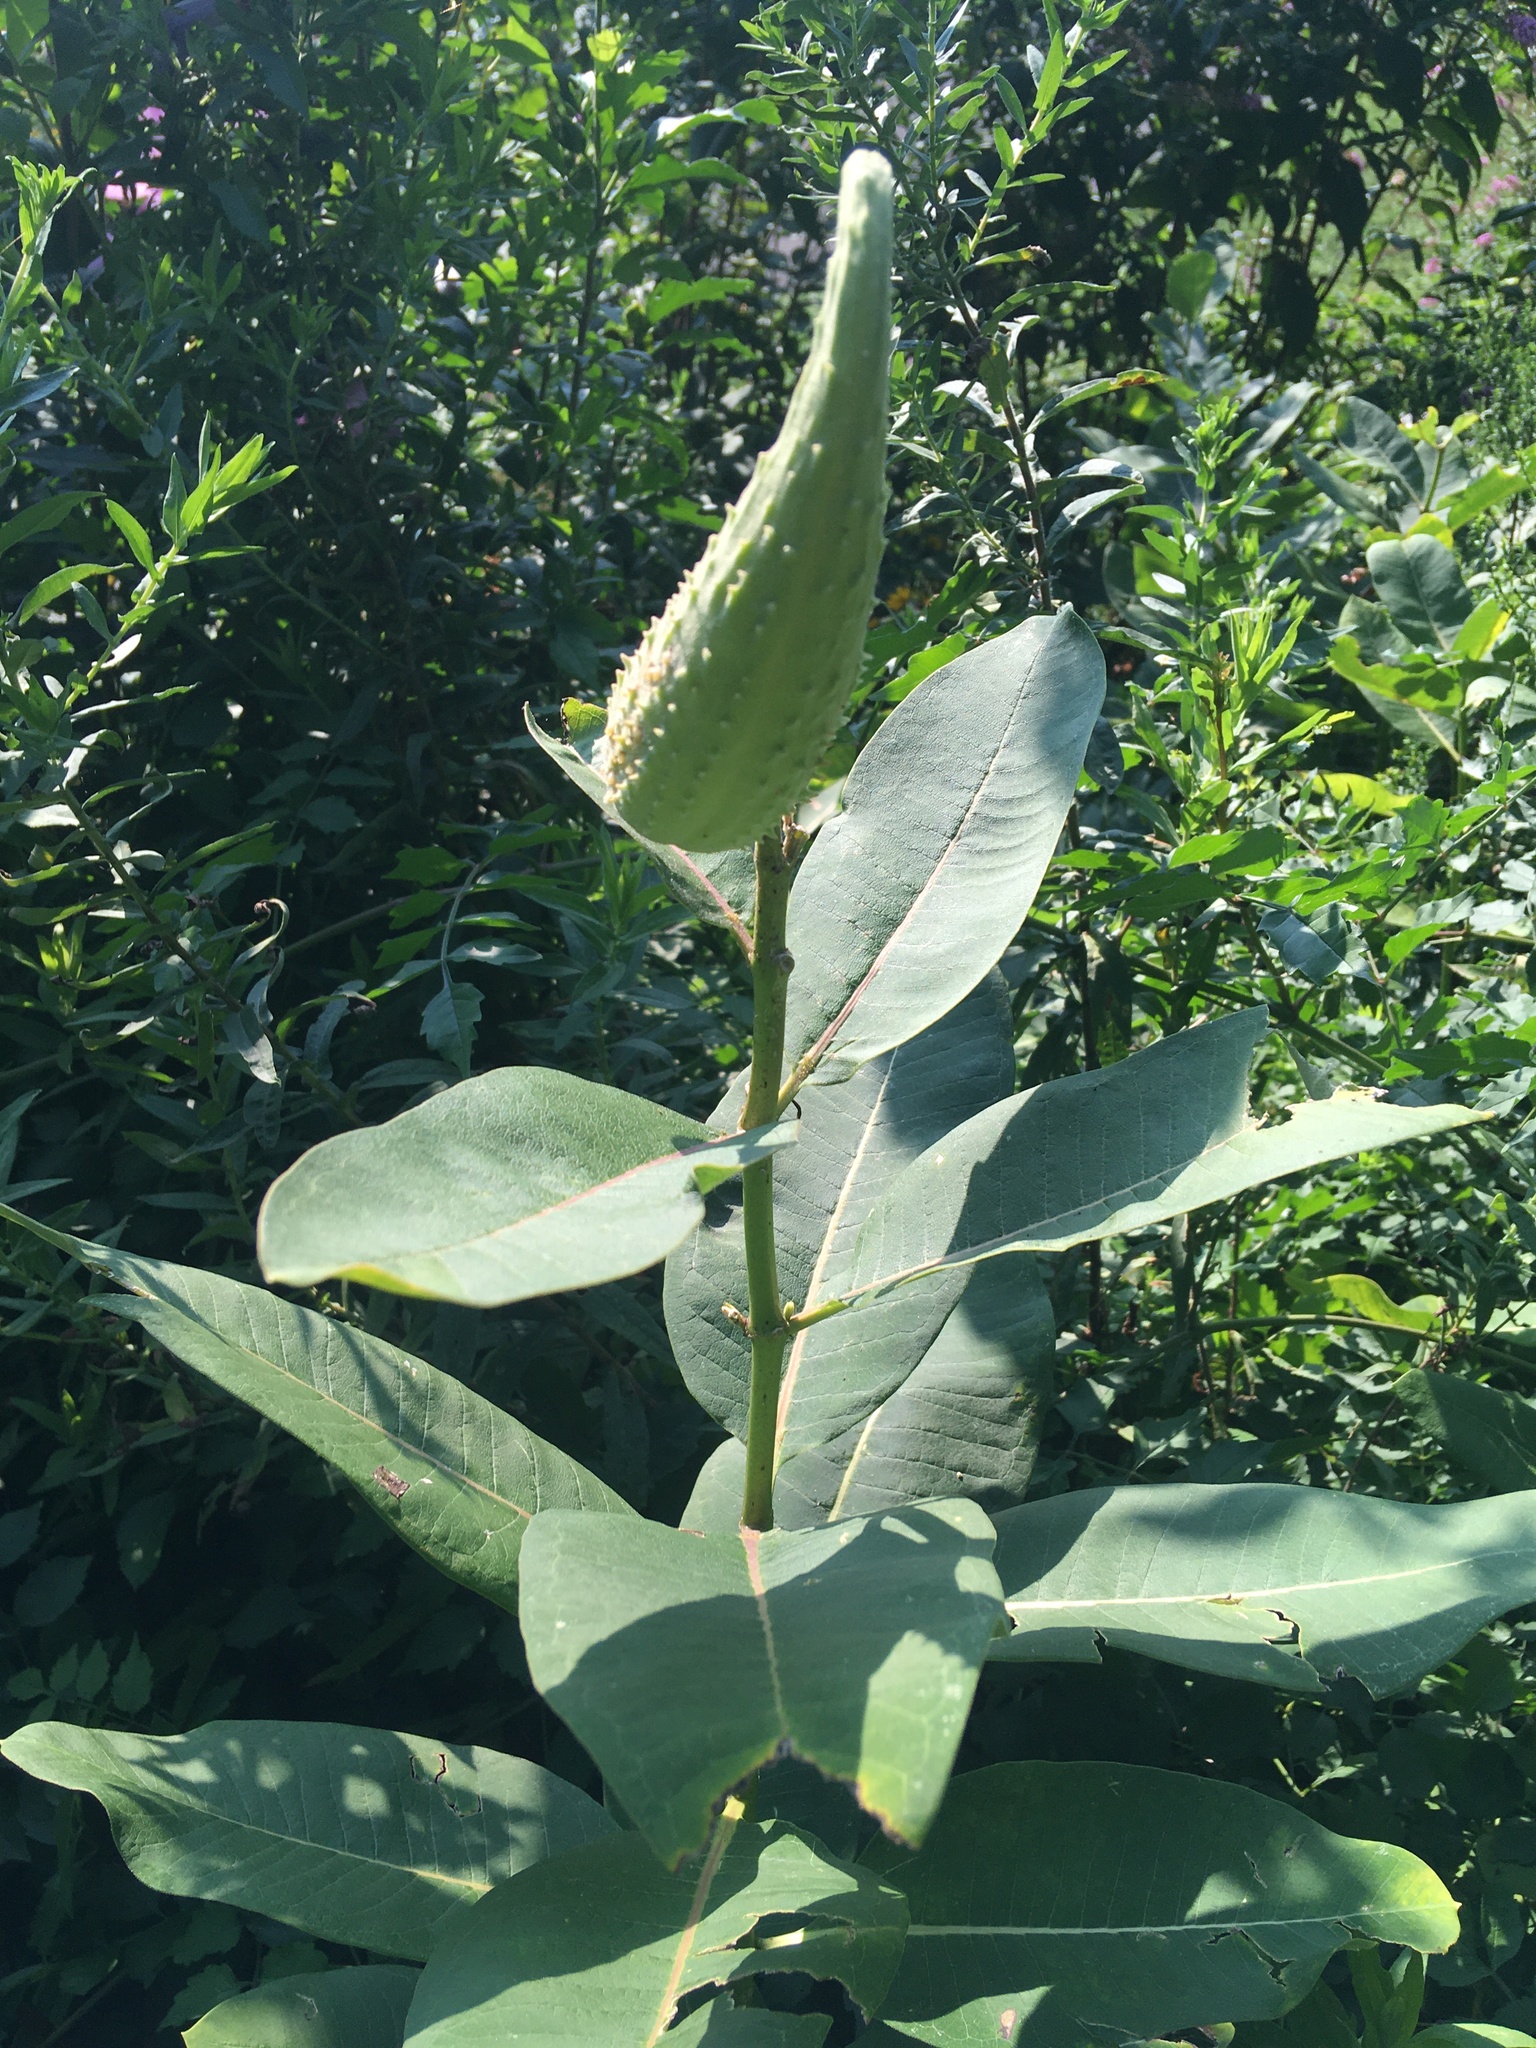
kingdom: Plantae
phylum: Tracheophyta
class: Magnoliopsida
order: Gentianales
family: Apocynaceae
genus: Asclepias
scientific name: Asclepias syriaca
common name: Common milkweed
